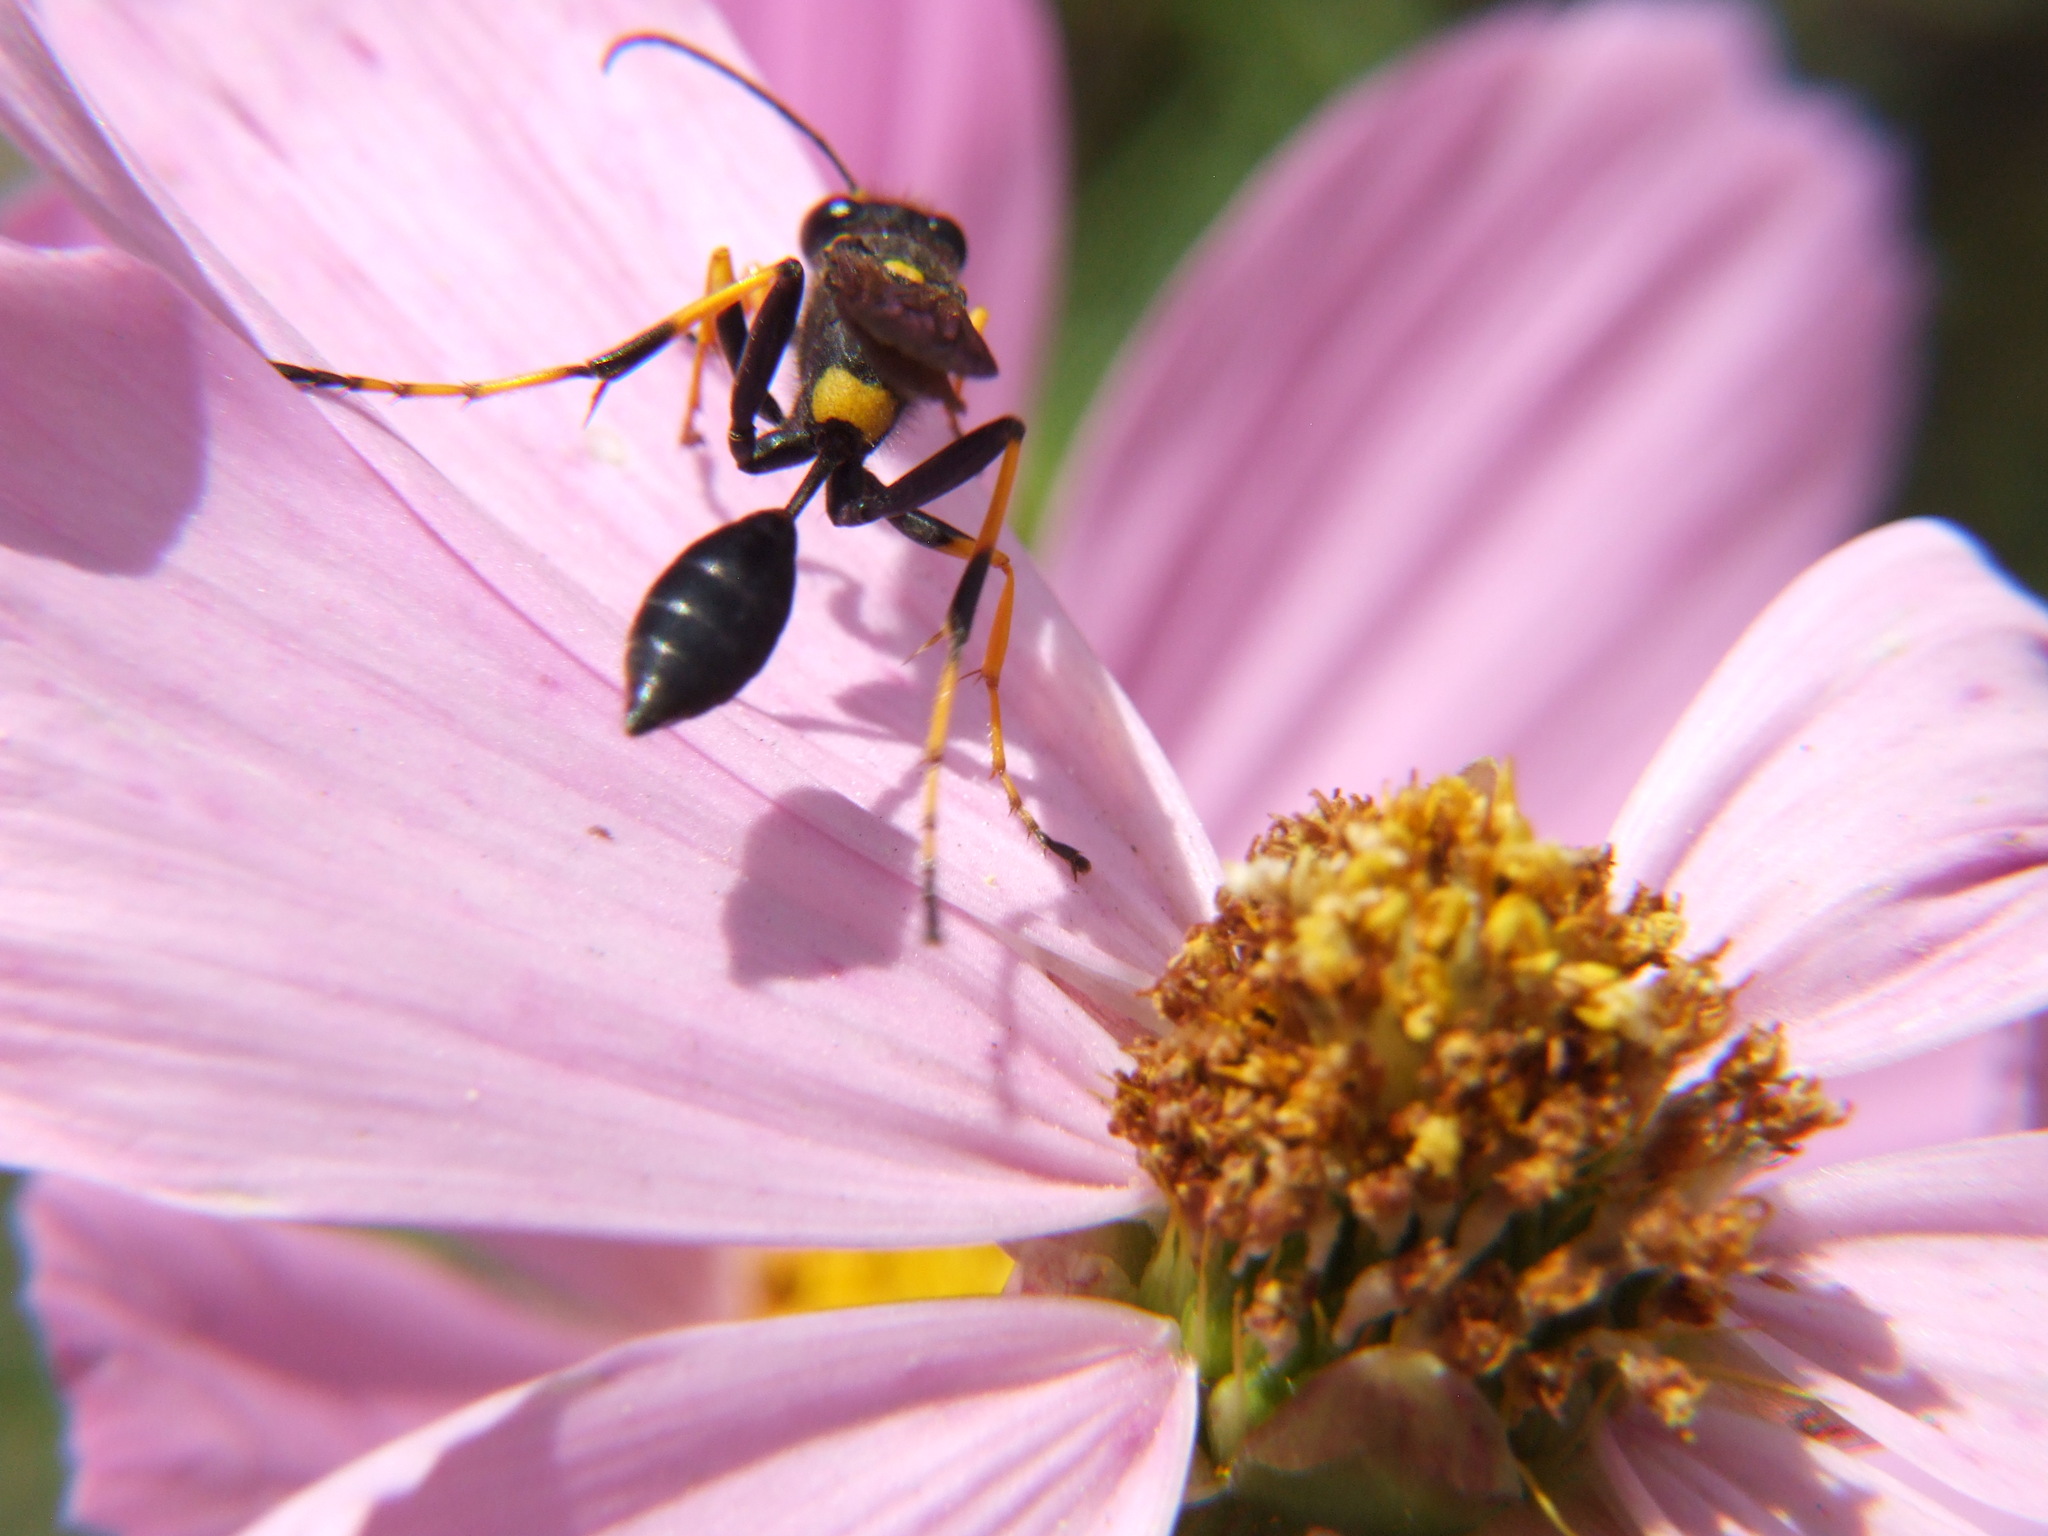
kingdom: Animalia
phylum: Arthropoda
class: Insecta
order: Hymenoptera
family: Sphecidae
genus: Sceliphron
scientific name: Sceliphron caementarium
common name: Mud dauber
